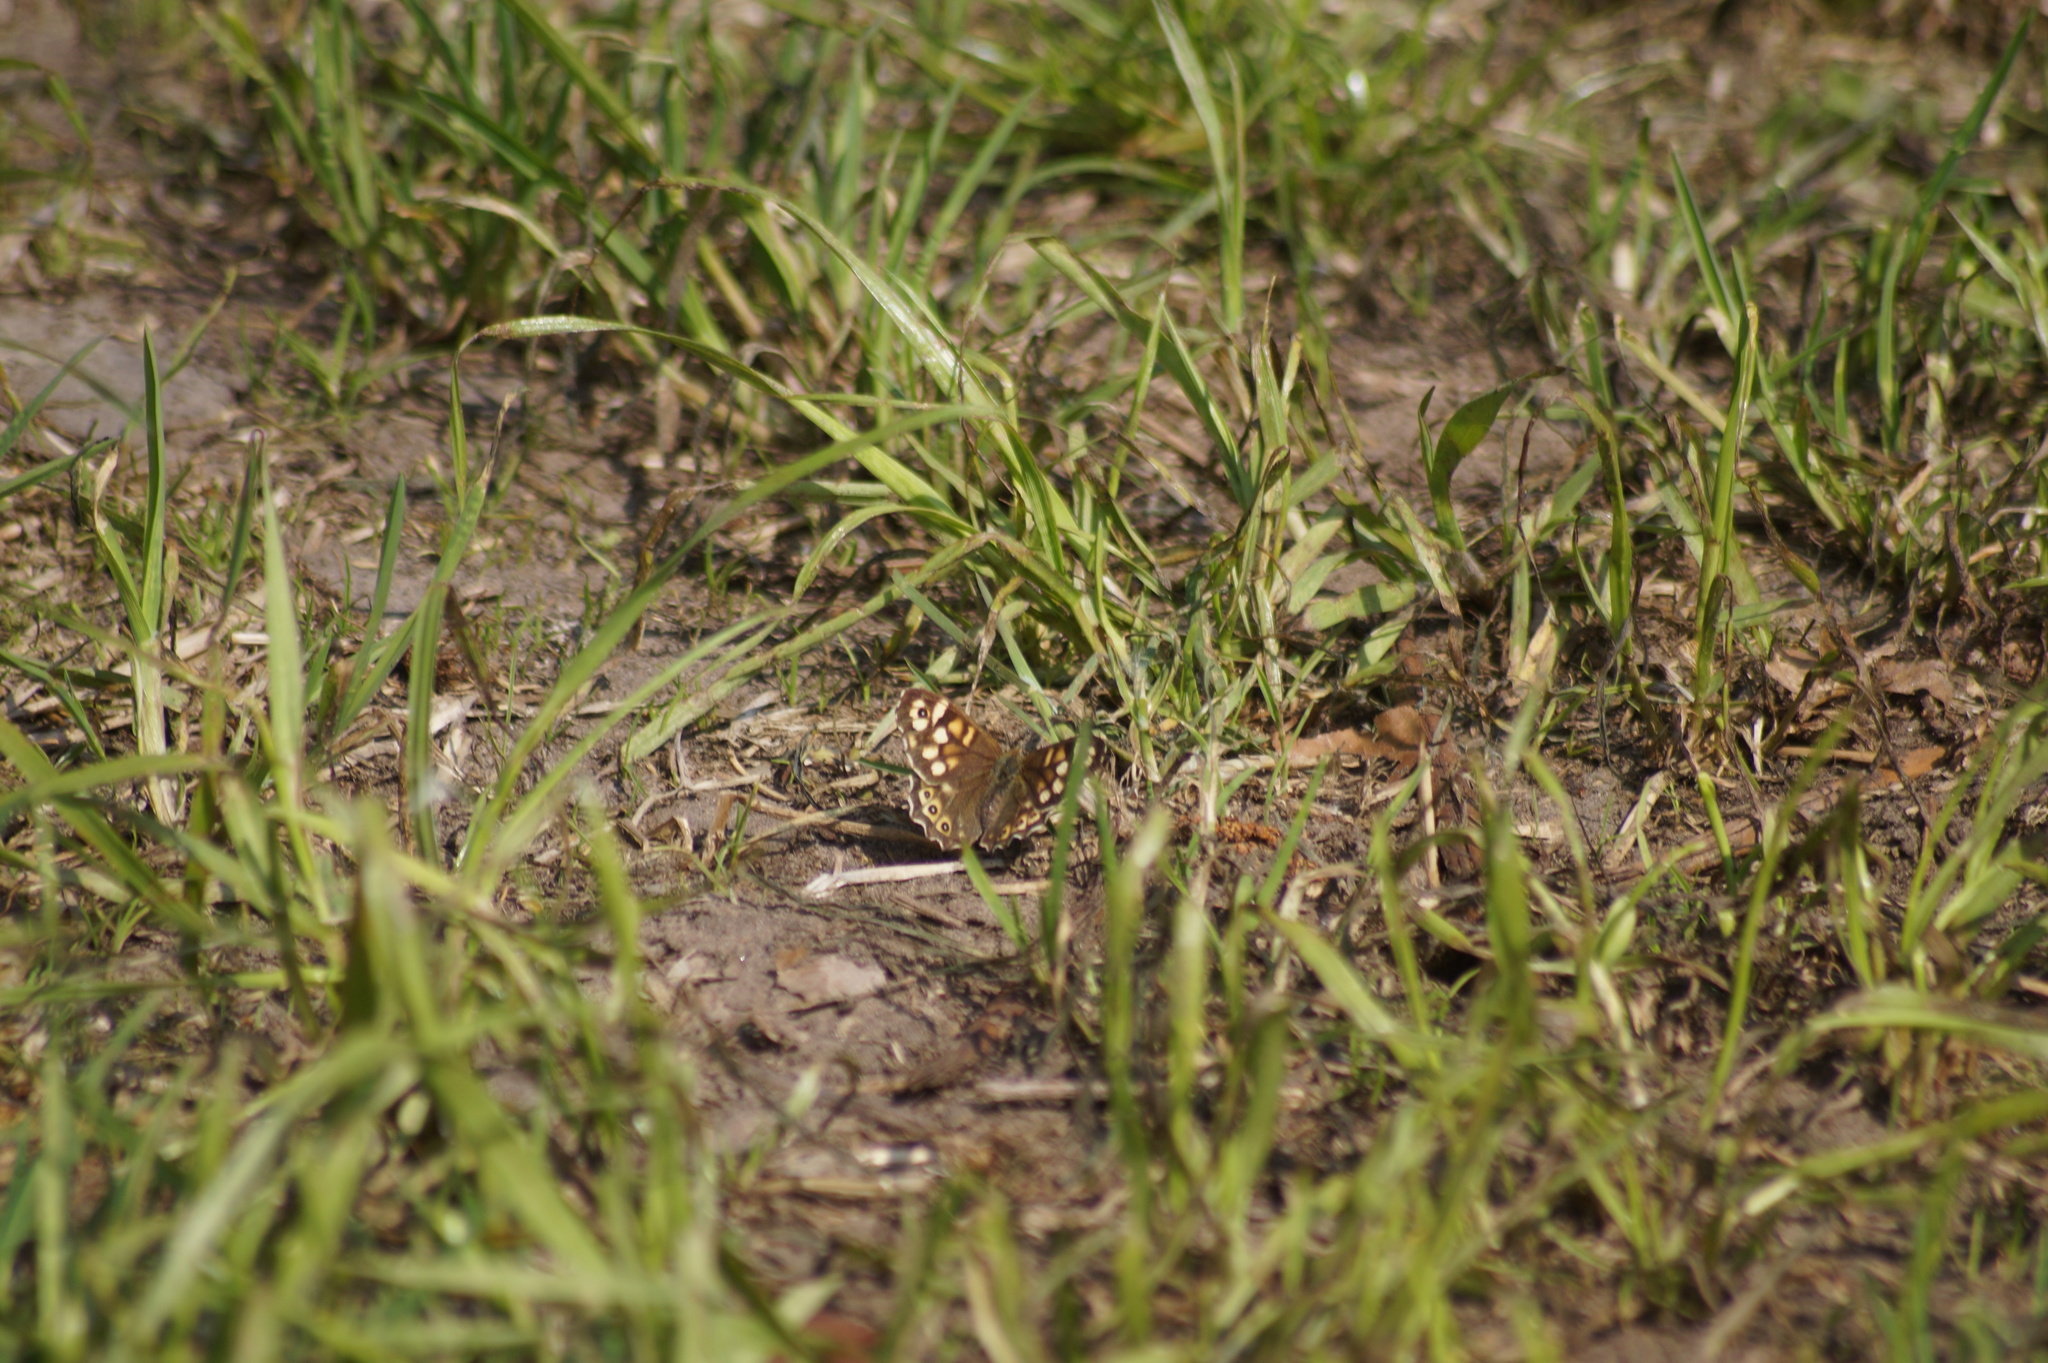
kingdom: Animalia
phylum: Arthropoda
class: Insecta
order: Lepidoptera
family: Nymphalidae
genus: Pararge
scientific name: Pararge aegeria
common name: Speckled wood
